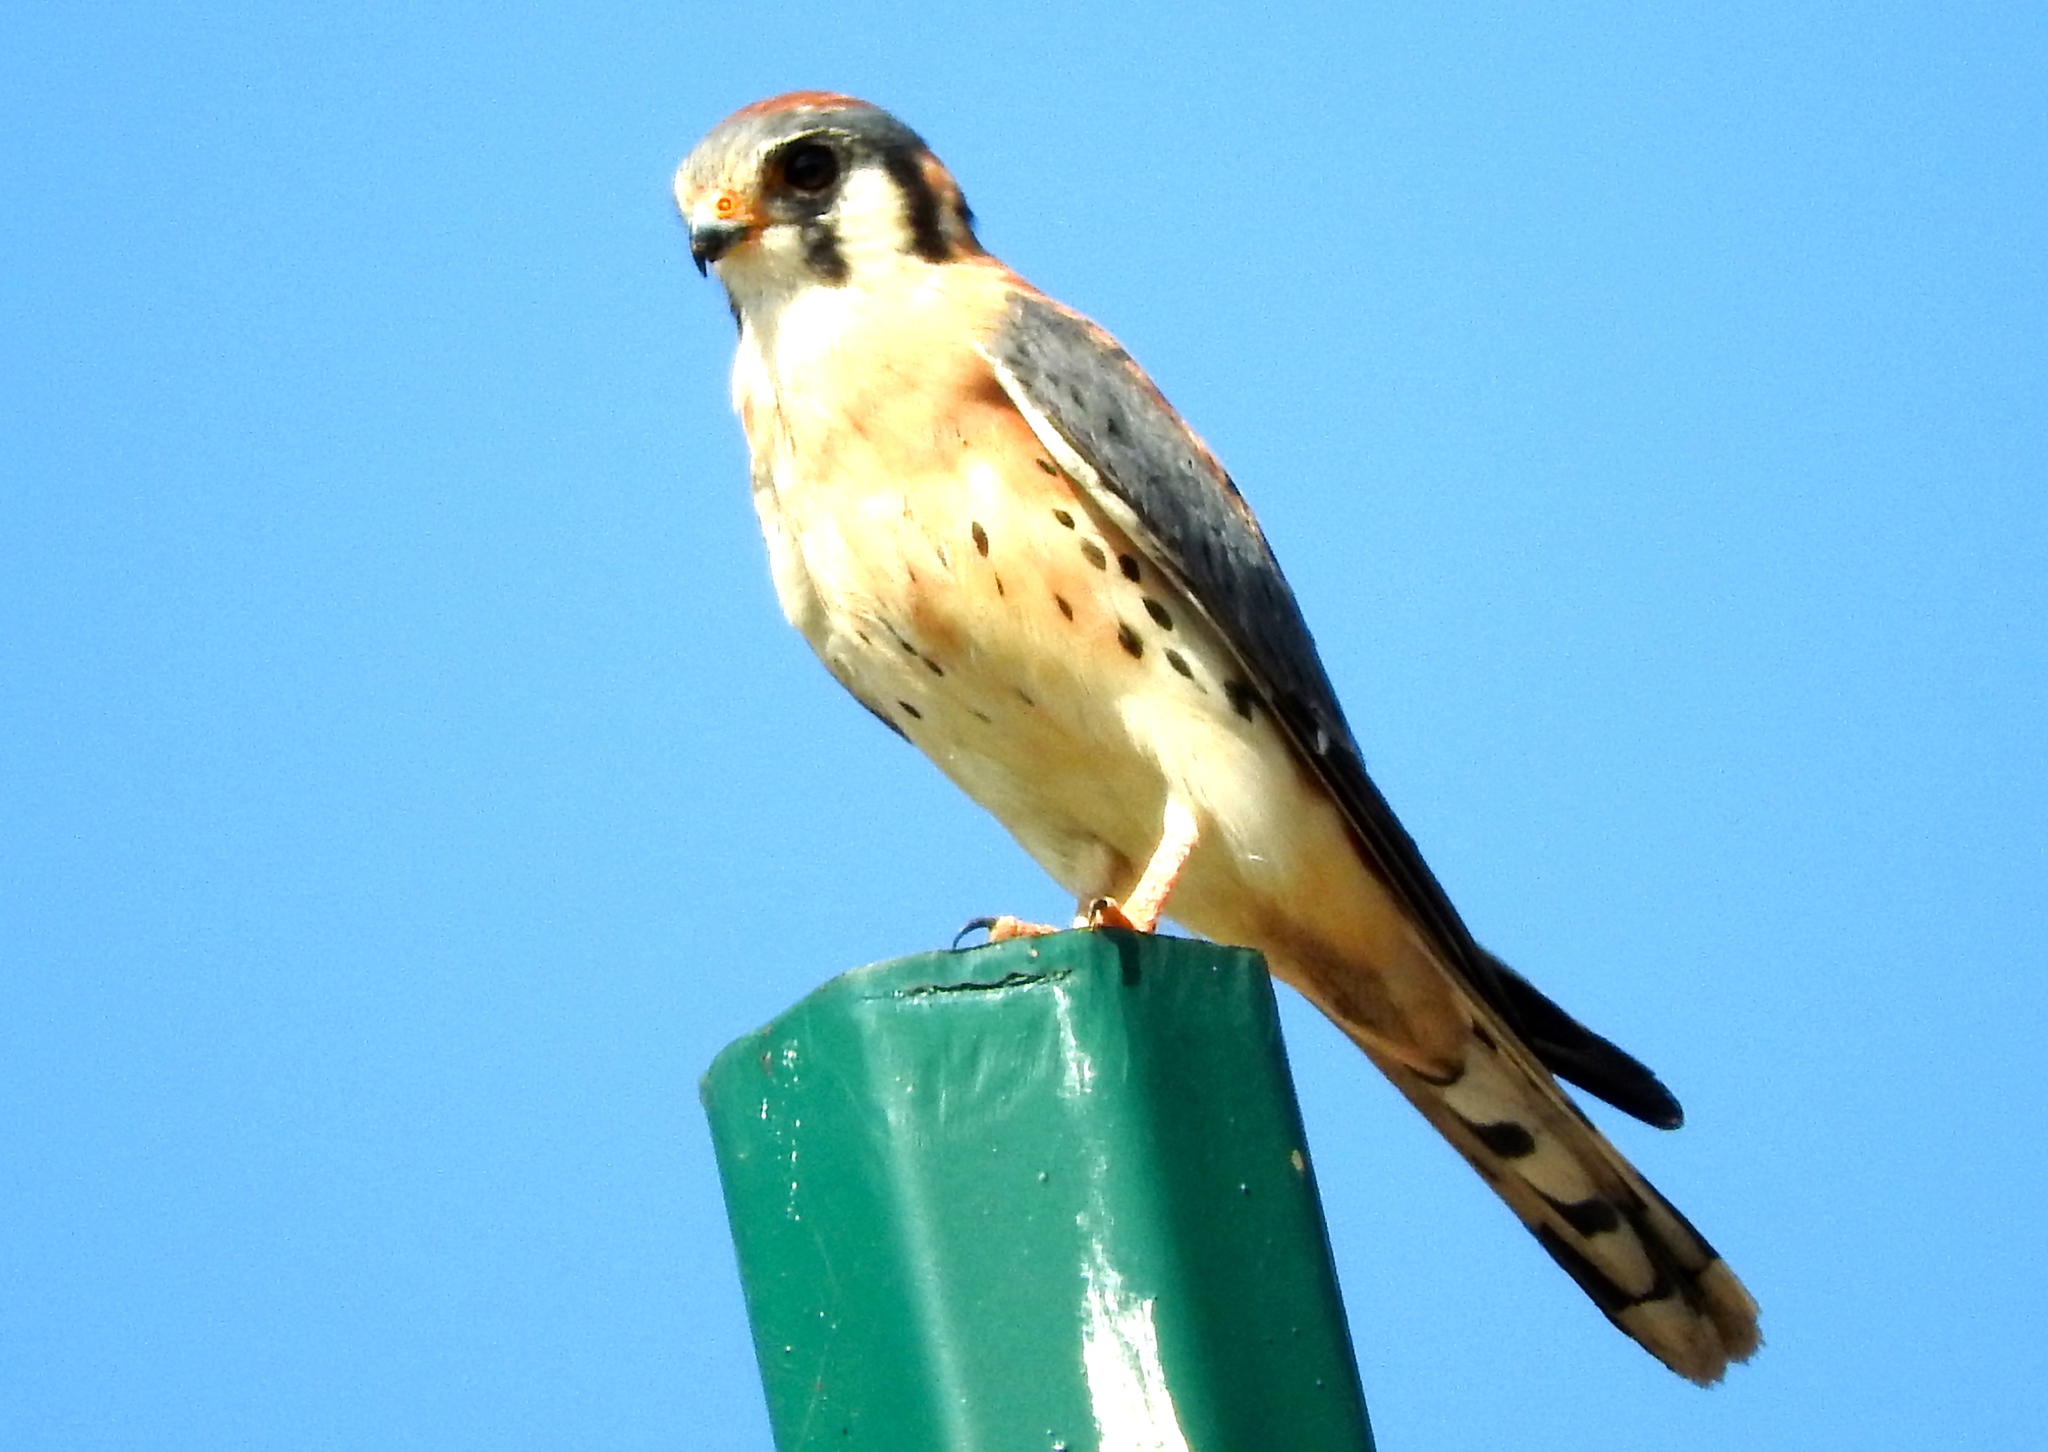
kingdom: Animalia
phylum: Chordata
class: Aves
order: Falconiformes
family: Falconidae
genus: Falco
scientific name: Falco sparverius
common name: American kestrel
